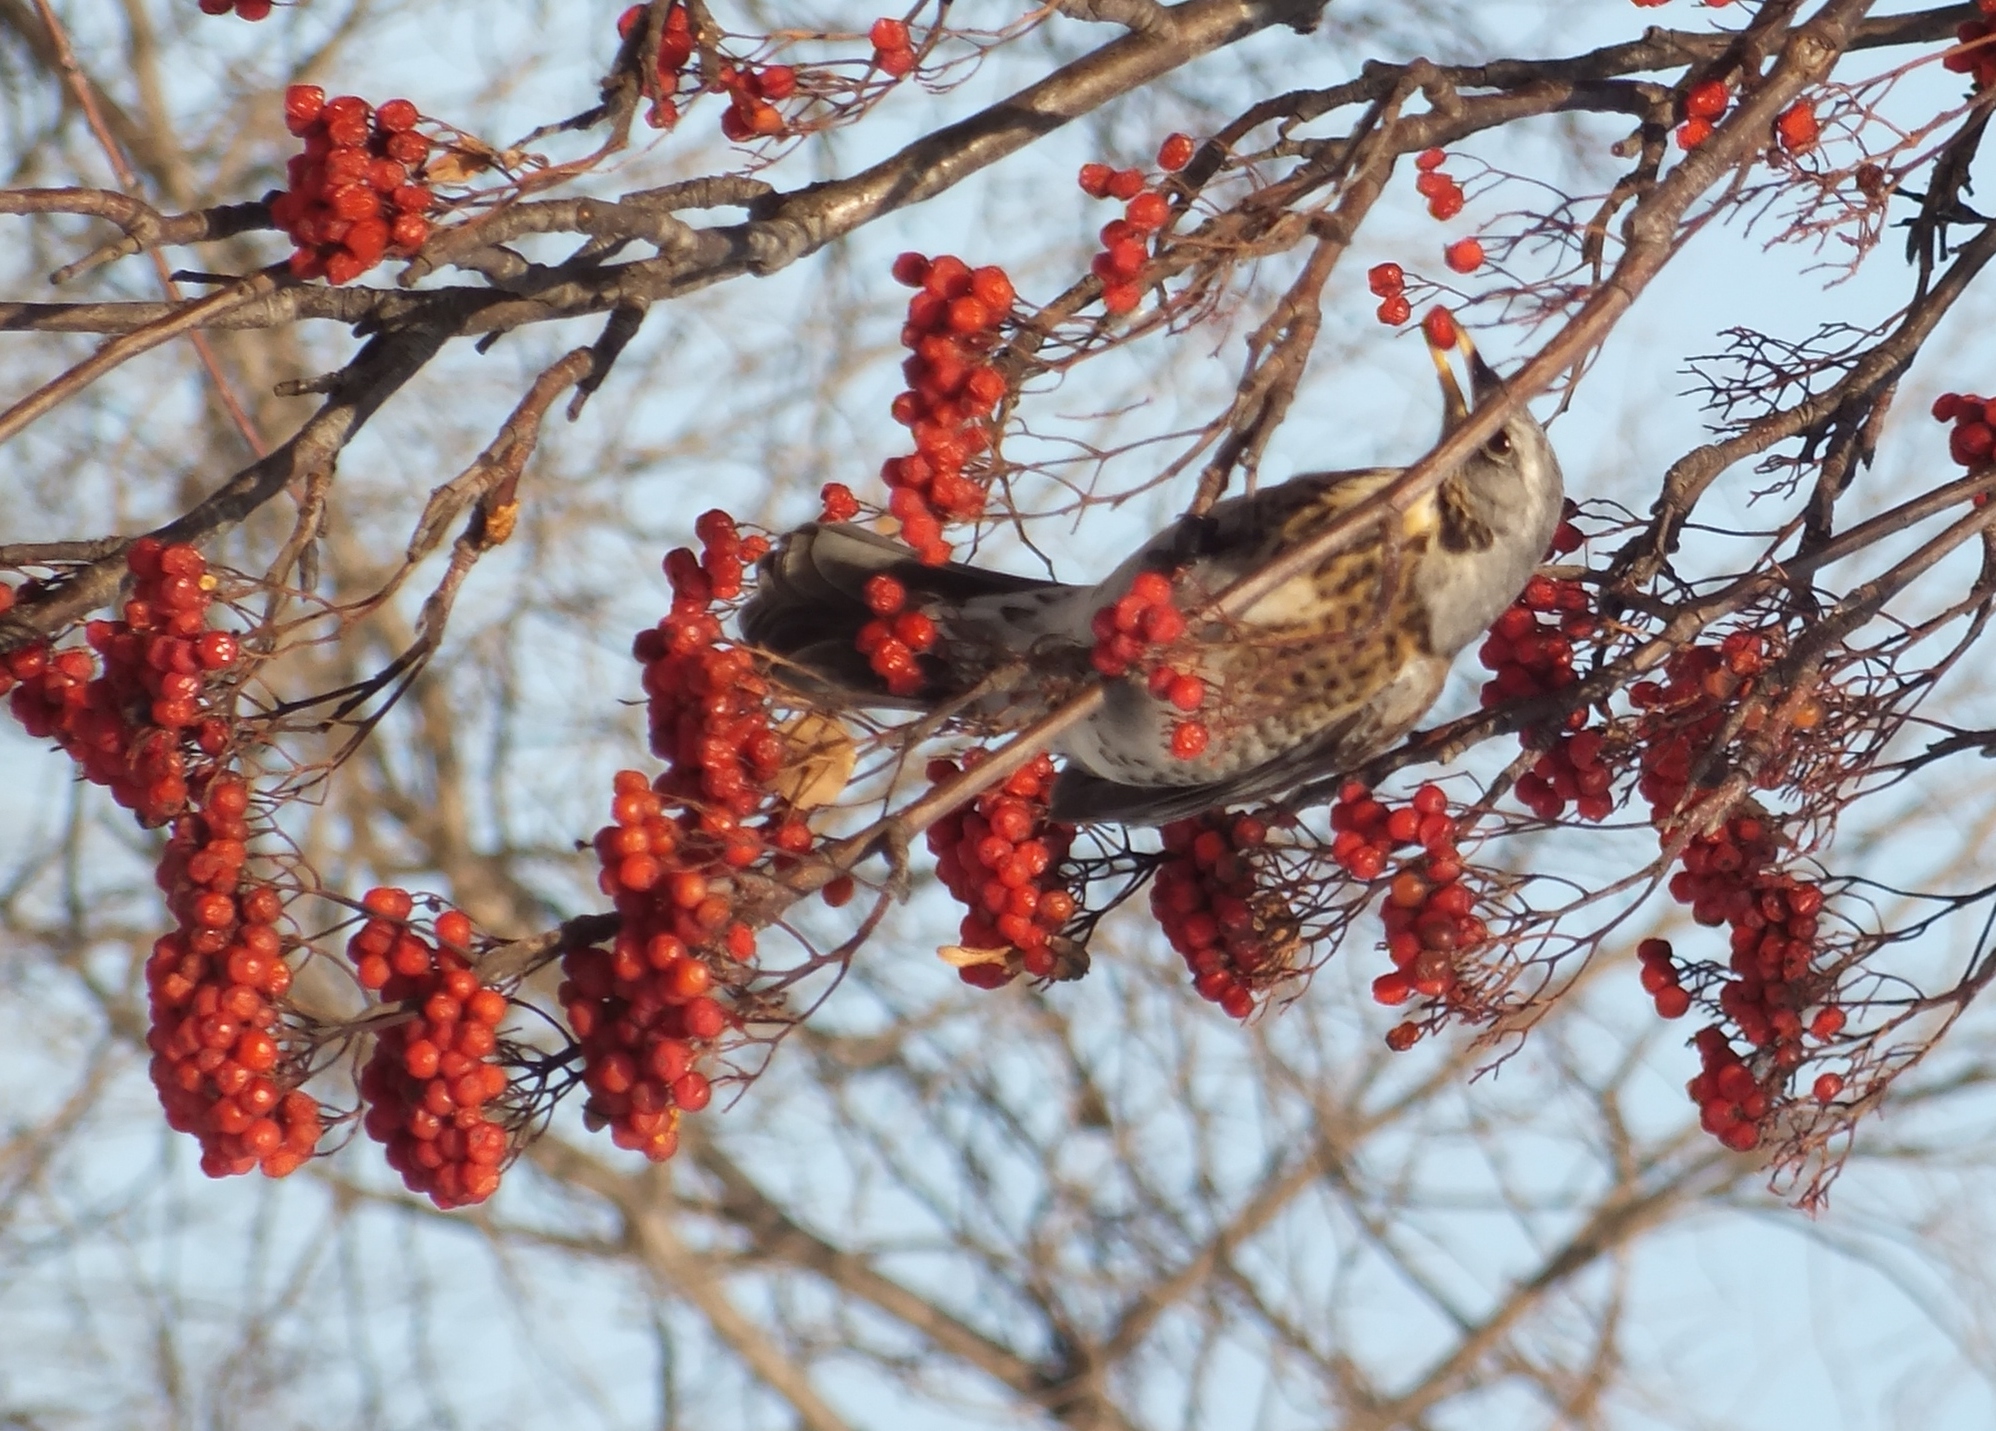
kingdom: Animalia
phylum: Chordata
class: Aves
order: Passeriformes
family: Turdidae
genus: Turdus
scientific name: Turdus pilaris
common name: Fieldfare
